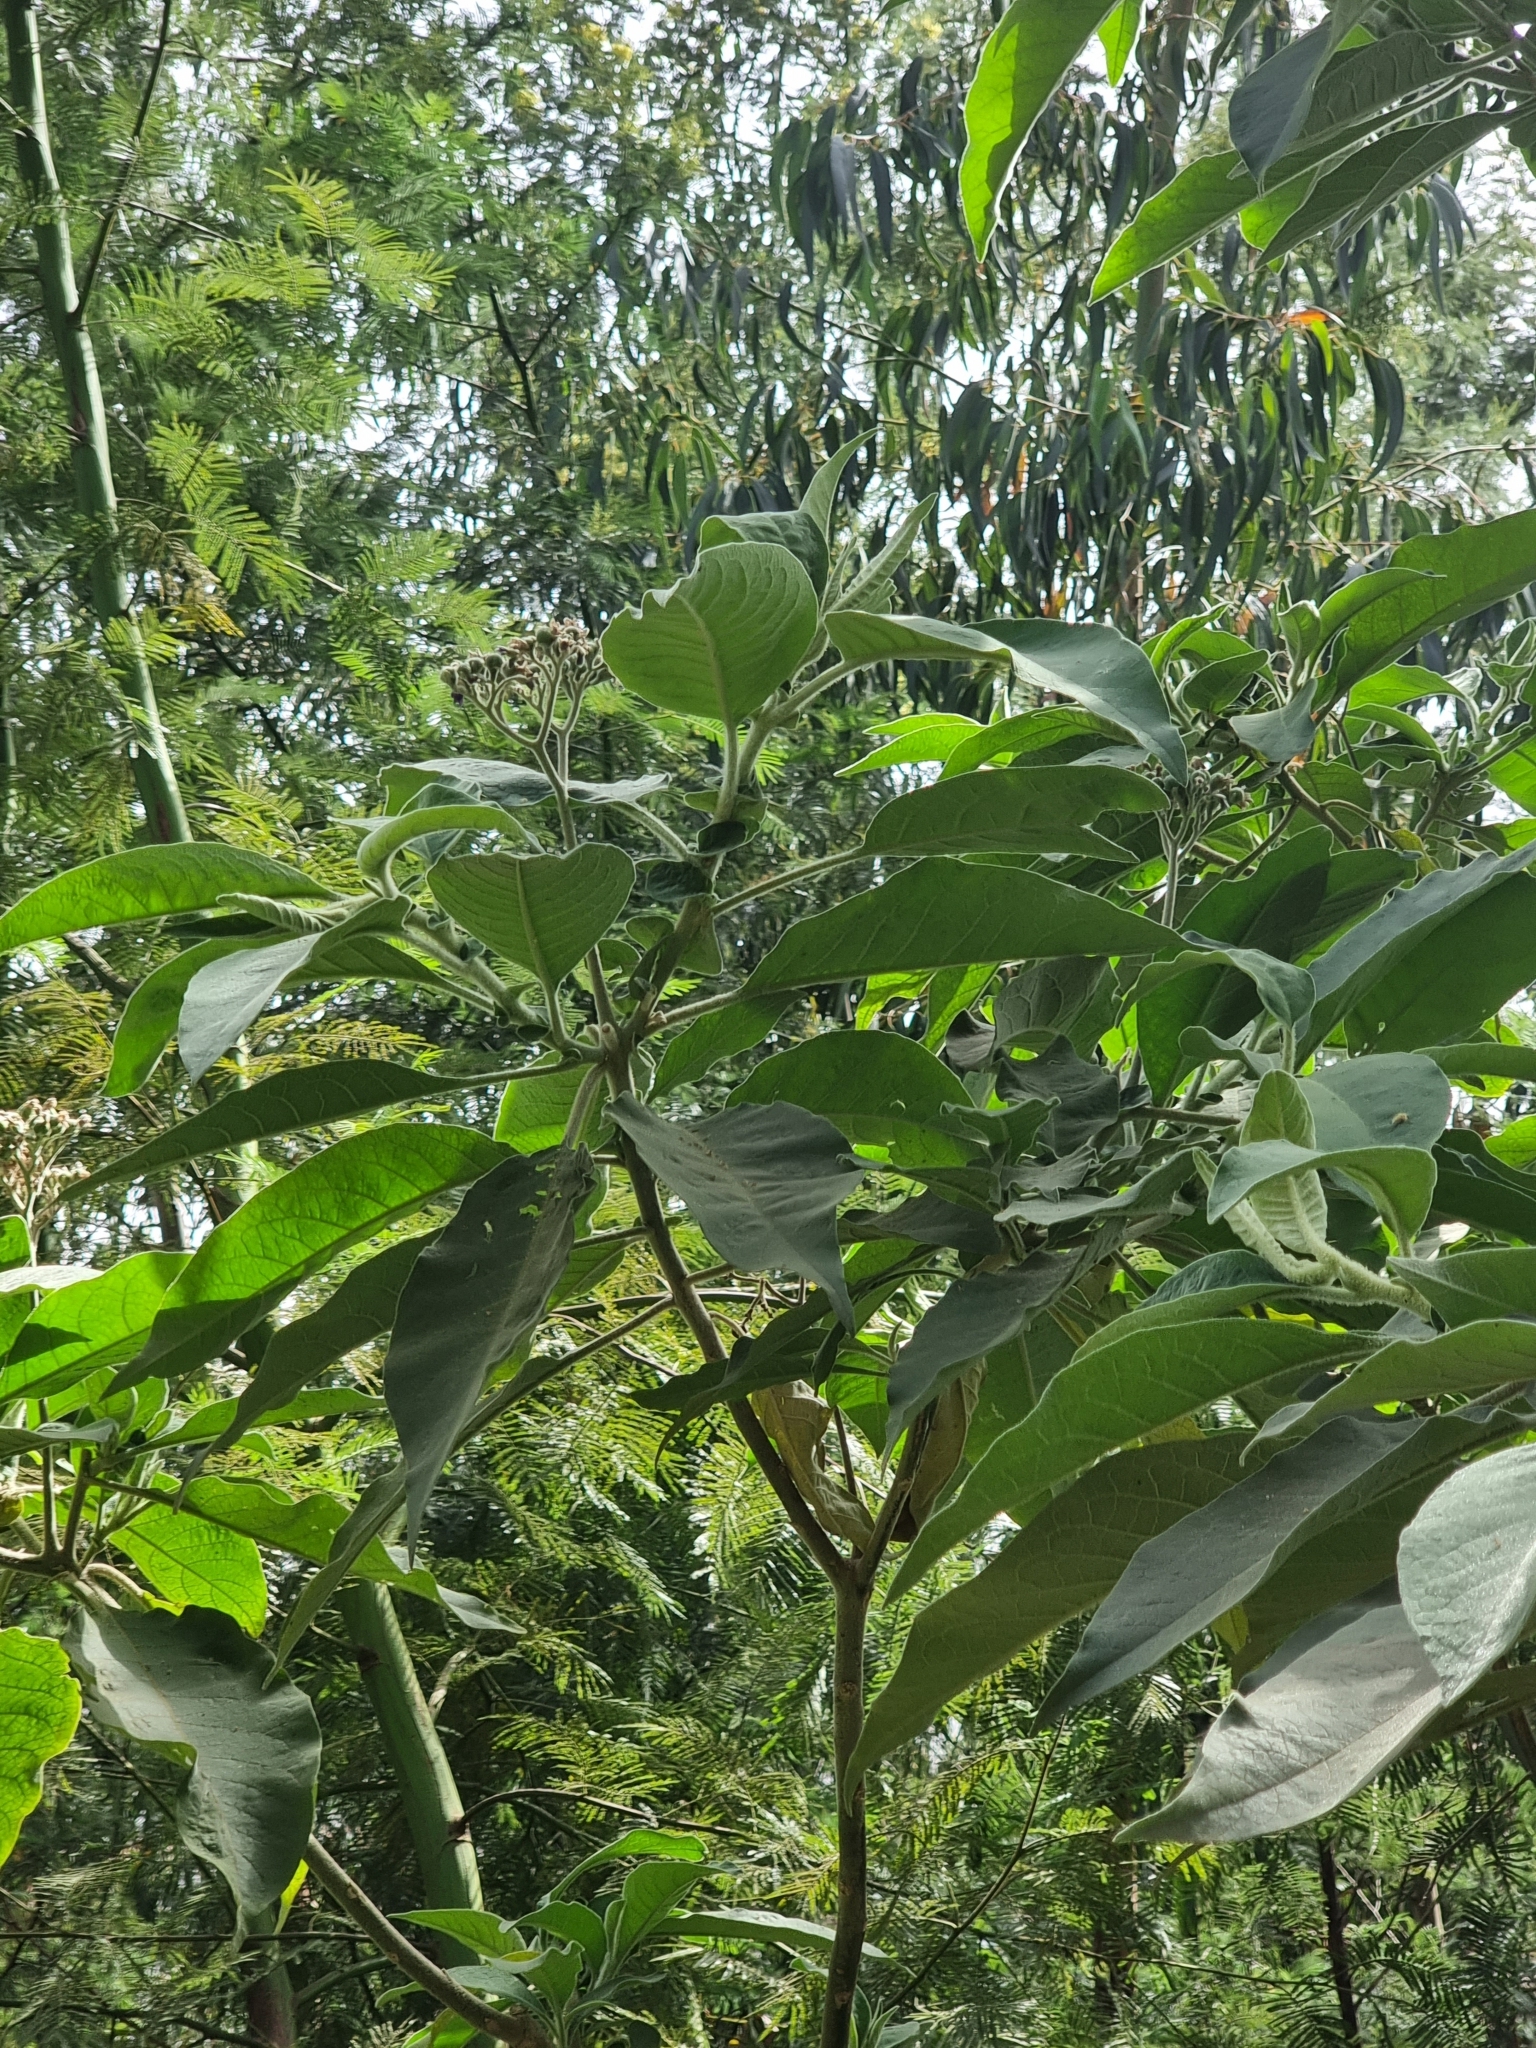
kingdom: Plantae
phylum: Tracheophyta
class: Magnoliopsida
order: Solanales
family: Solanaceae
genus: Solanum
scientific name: Solanum mauritianum
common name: Earleaf nightshade
